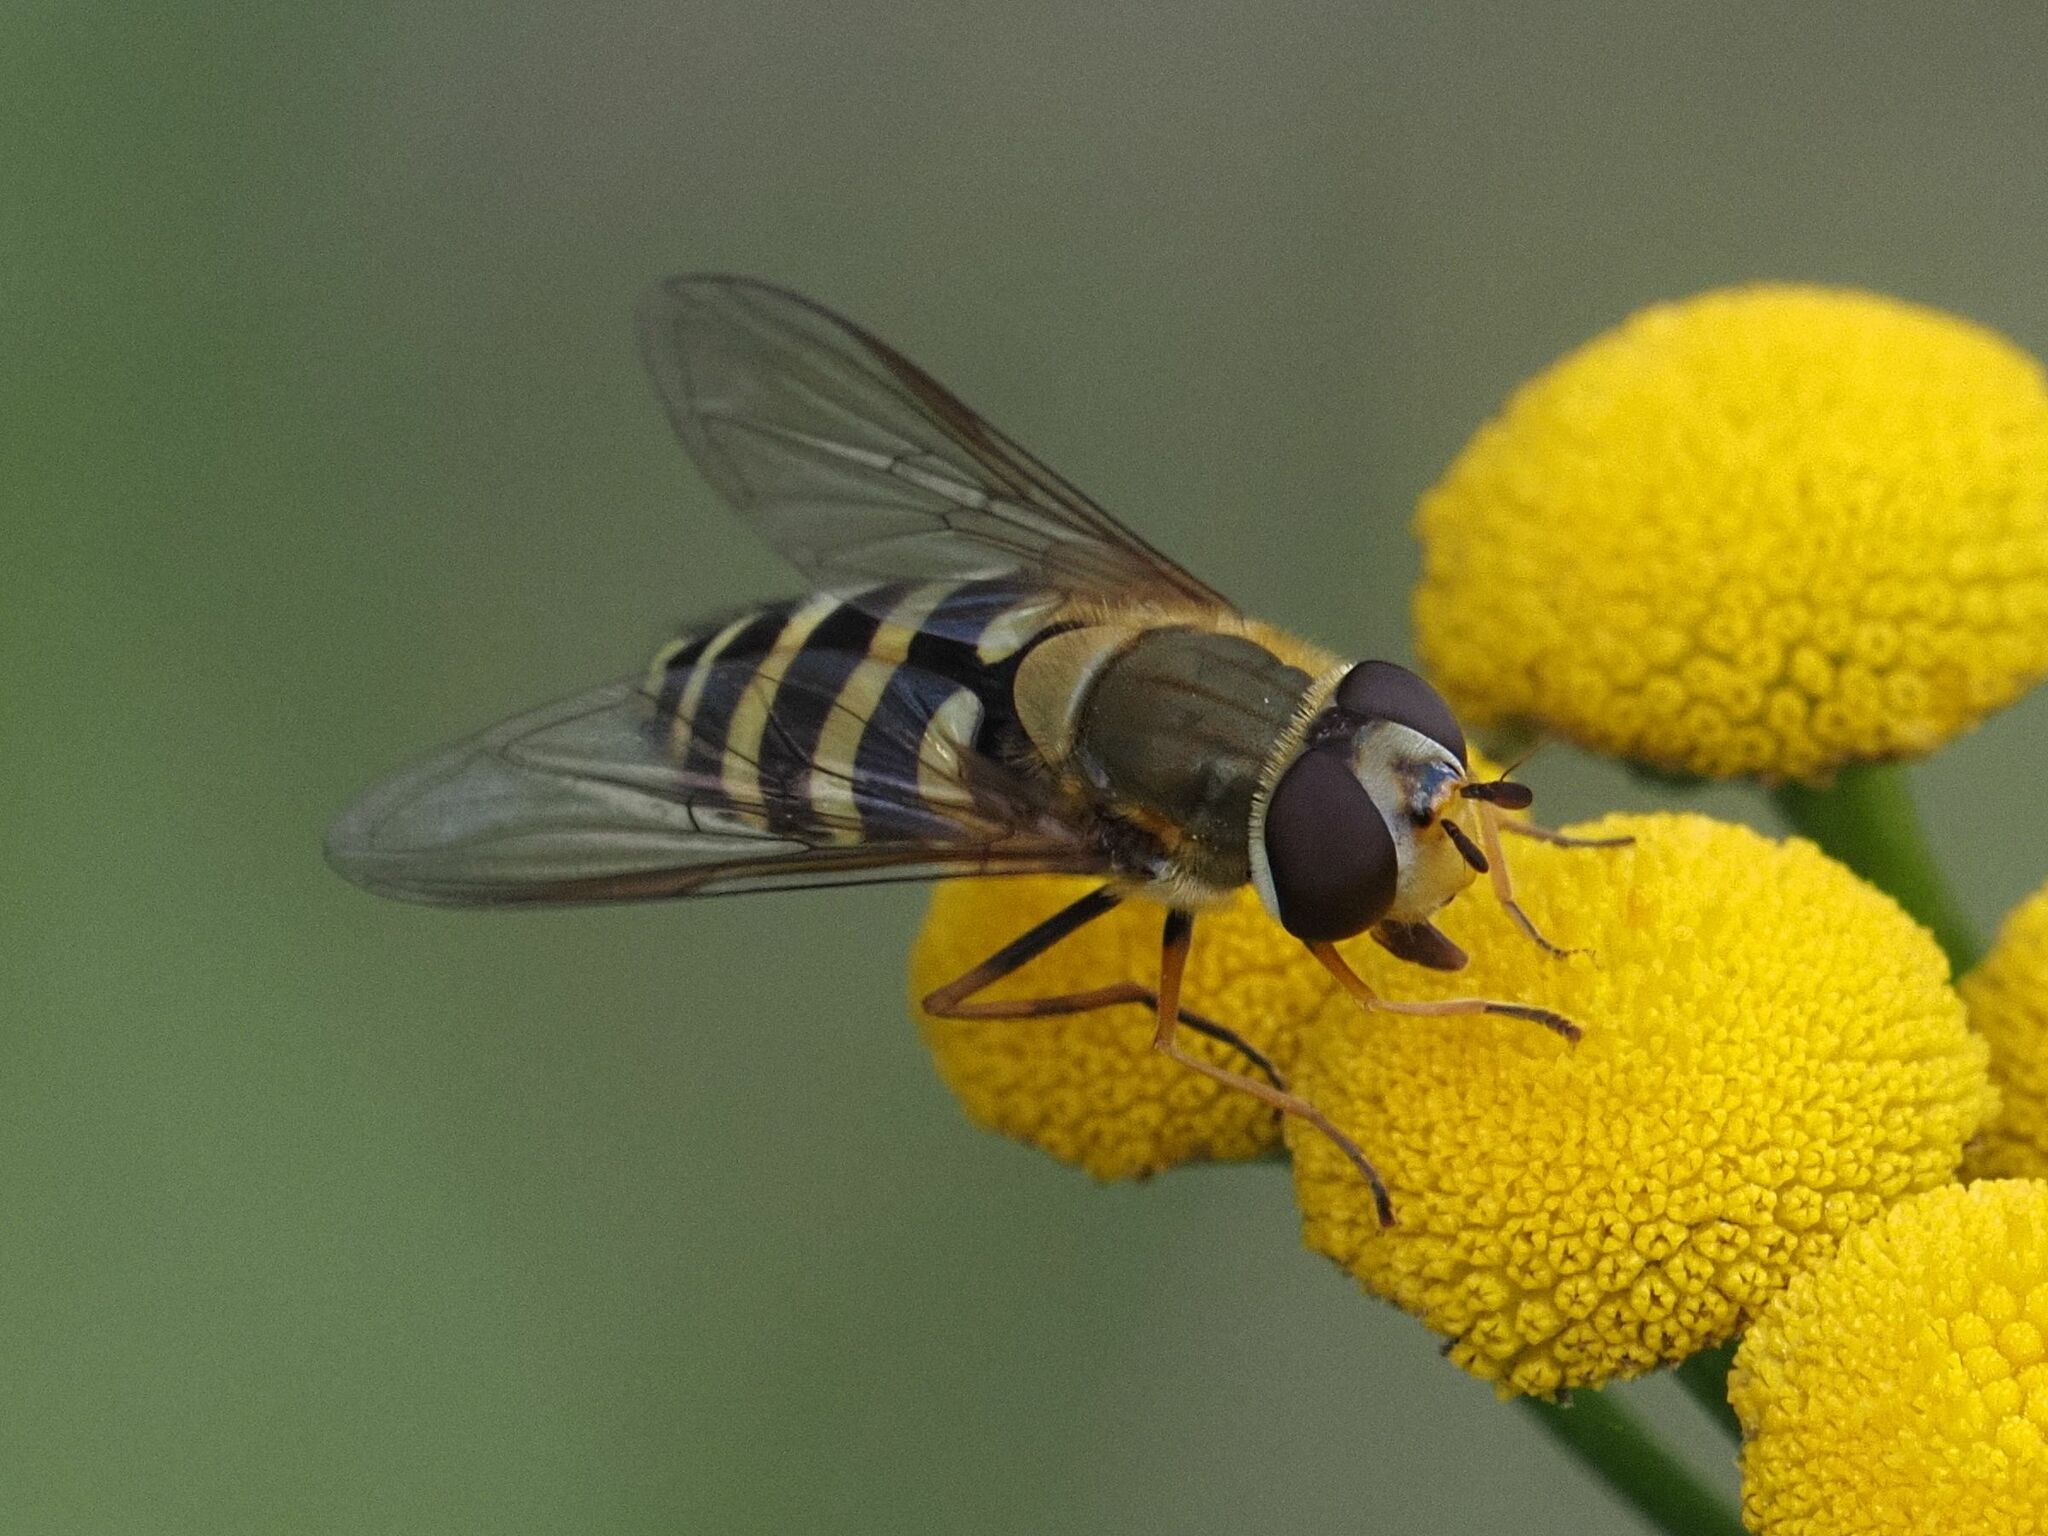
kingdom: Animalia
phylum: Arthropoda
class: Insecta
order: Diptera
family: Syrphidae
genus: Syrphus
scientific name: Syrphus
